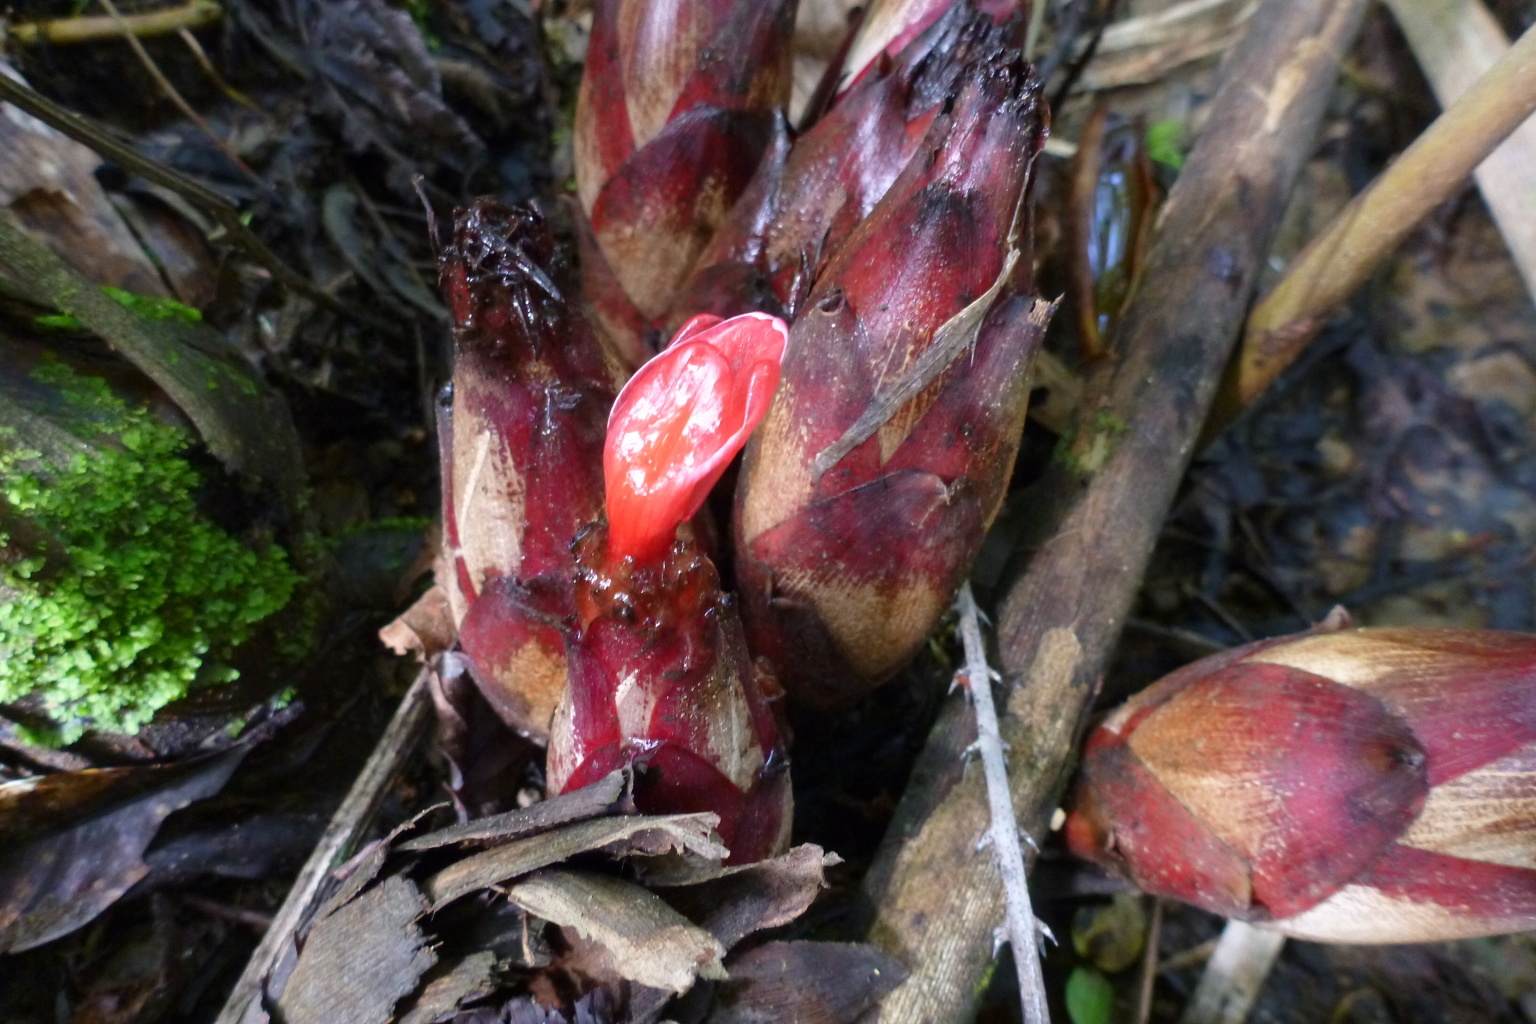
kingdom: Plantae
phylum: Tracheophyta
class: Liliopsida
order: Zingiberales
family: Zingiberaceae
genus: Hornstedtia
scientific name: Hornstedtia scottiana
